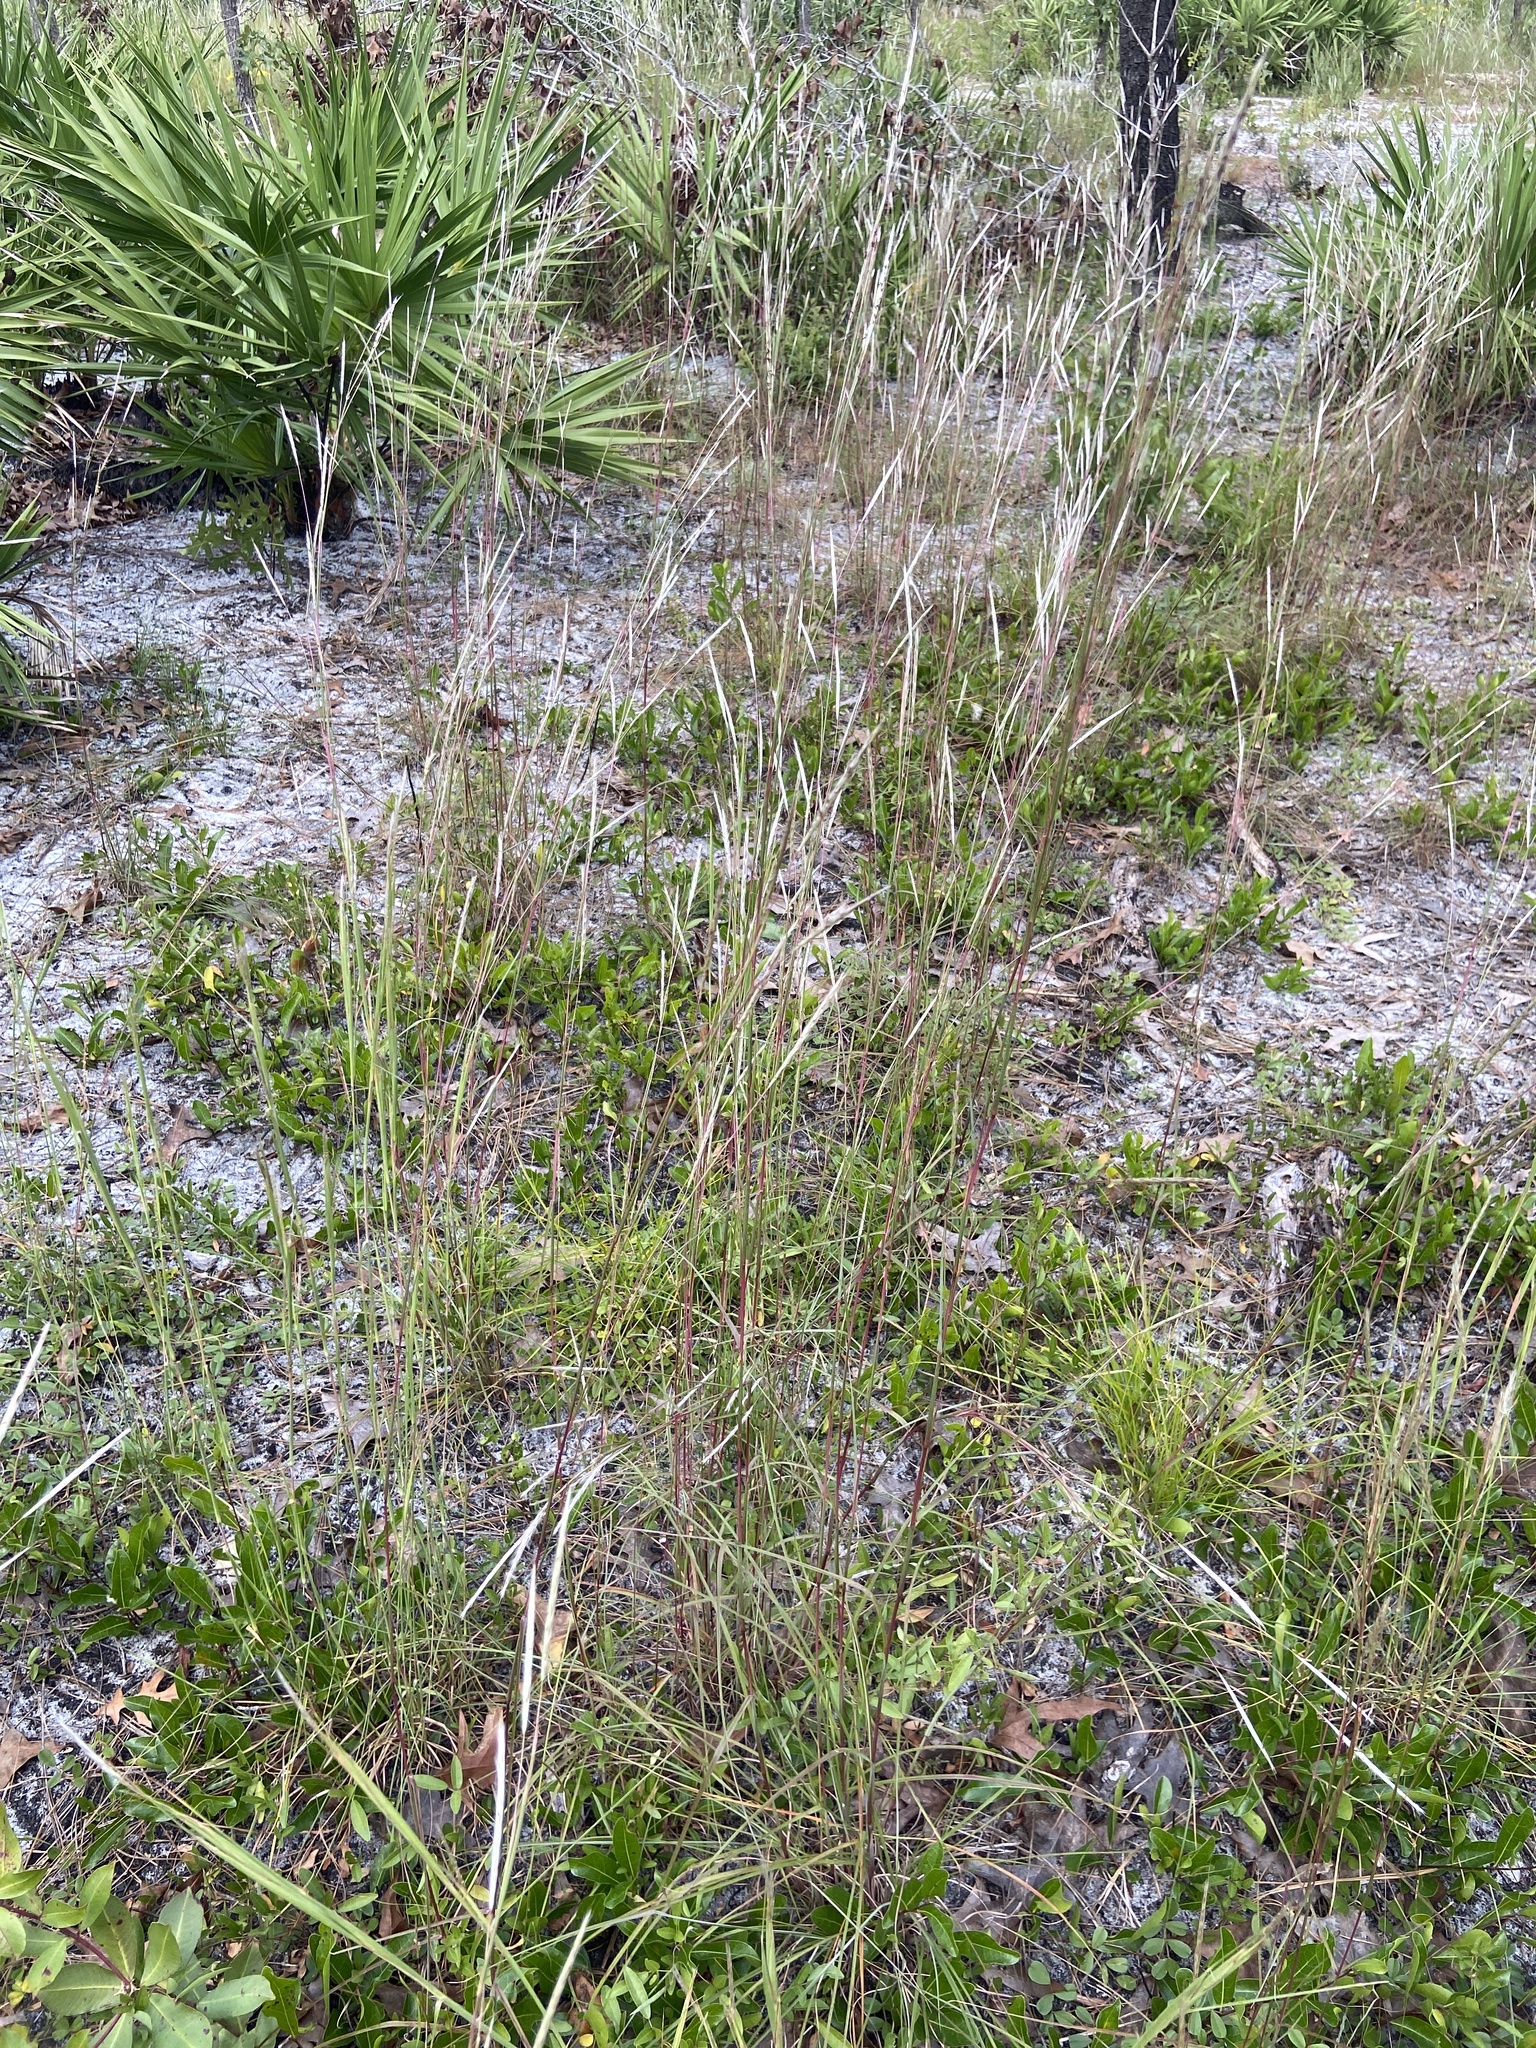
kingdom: Plantae
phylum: Tracheophyta
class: Liliopsida
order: Poales
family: Poaceae
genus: Andropogon
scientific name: Andropogon cabanisii
